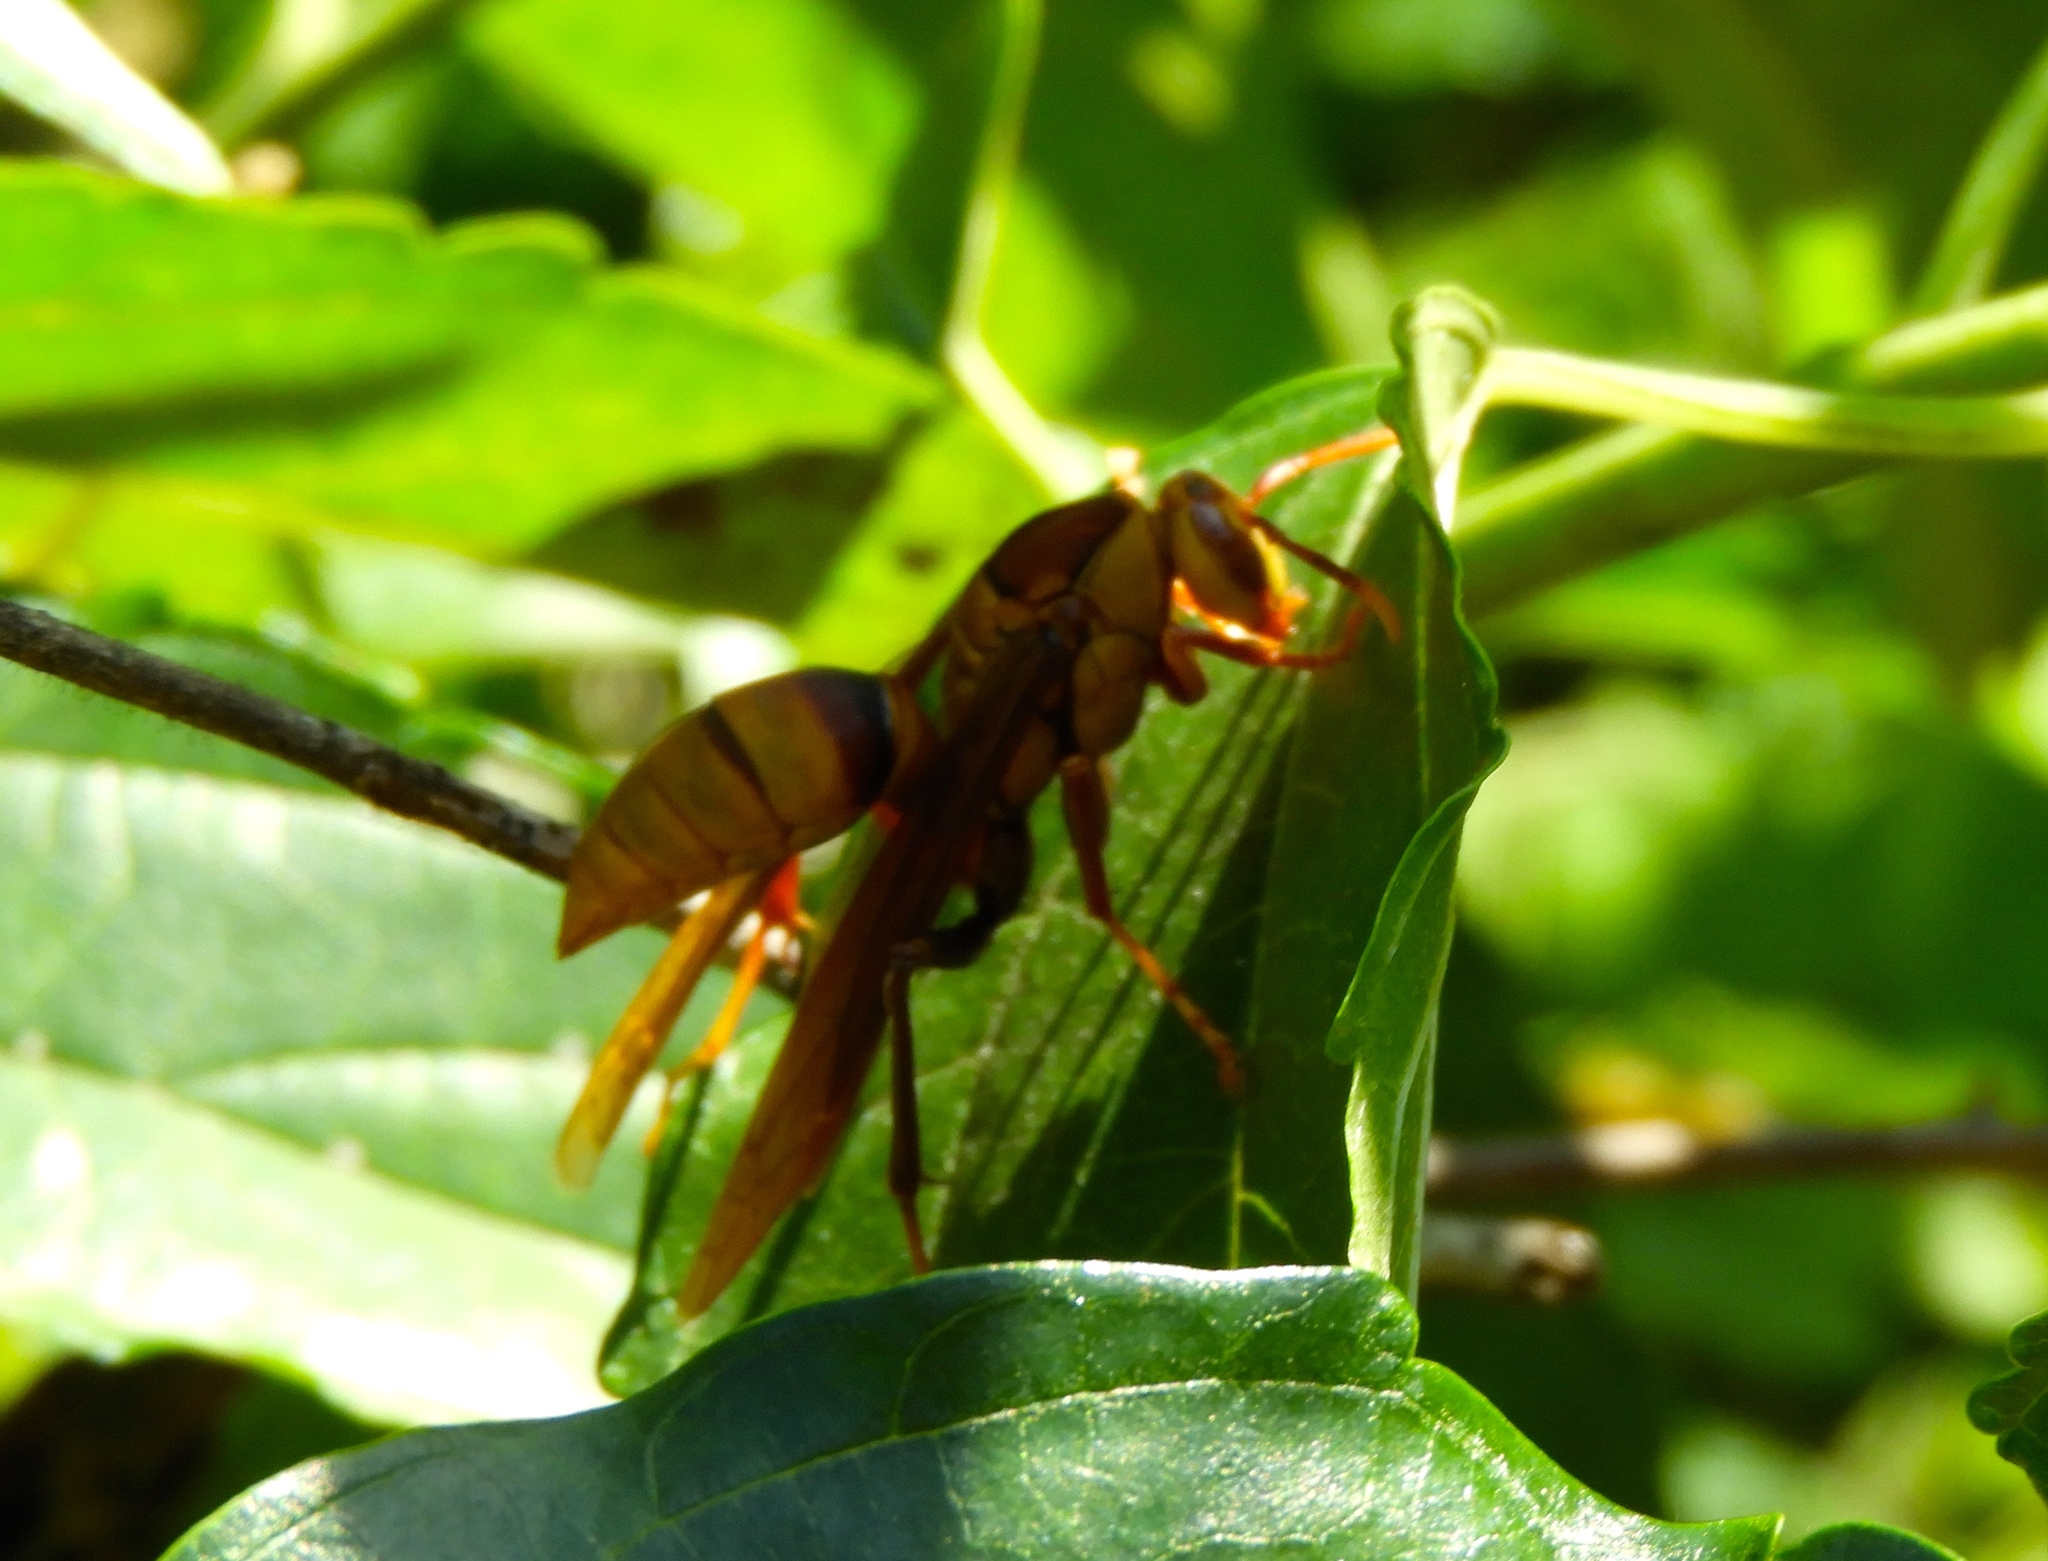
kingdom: Animalia
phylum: Arthropoda
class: Insecta
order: Hymenoptera
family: Eumenidae
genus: Polistes
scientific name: Polistes
